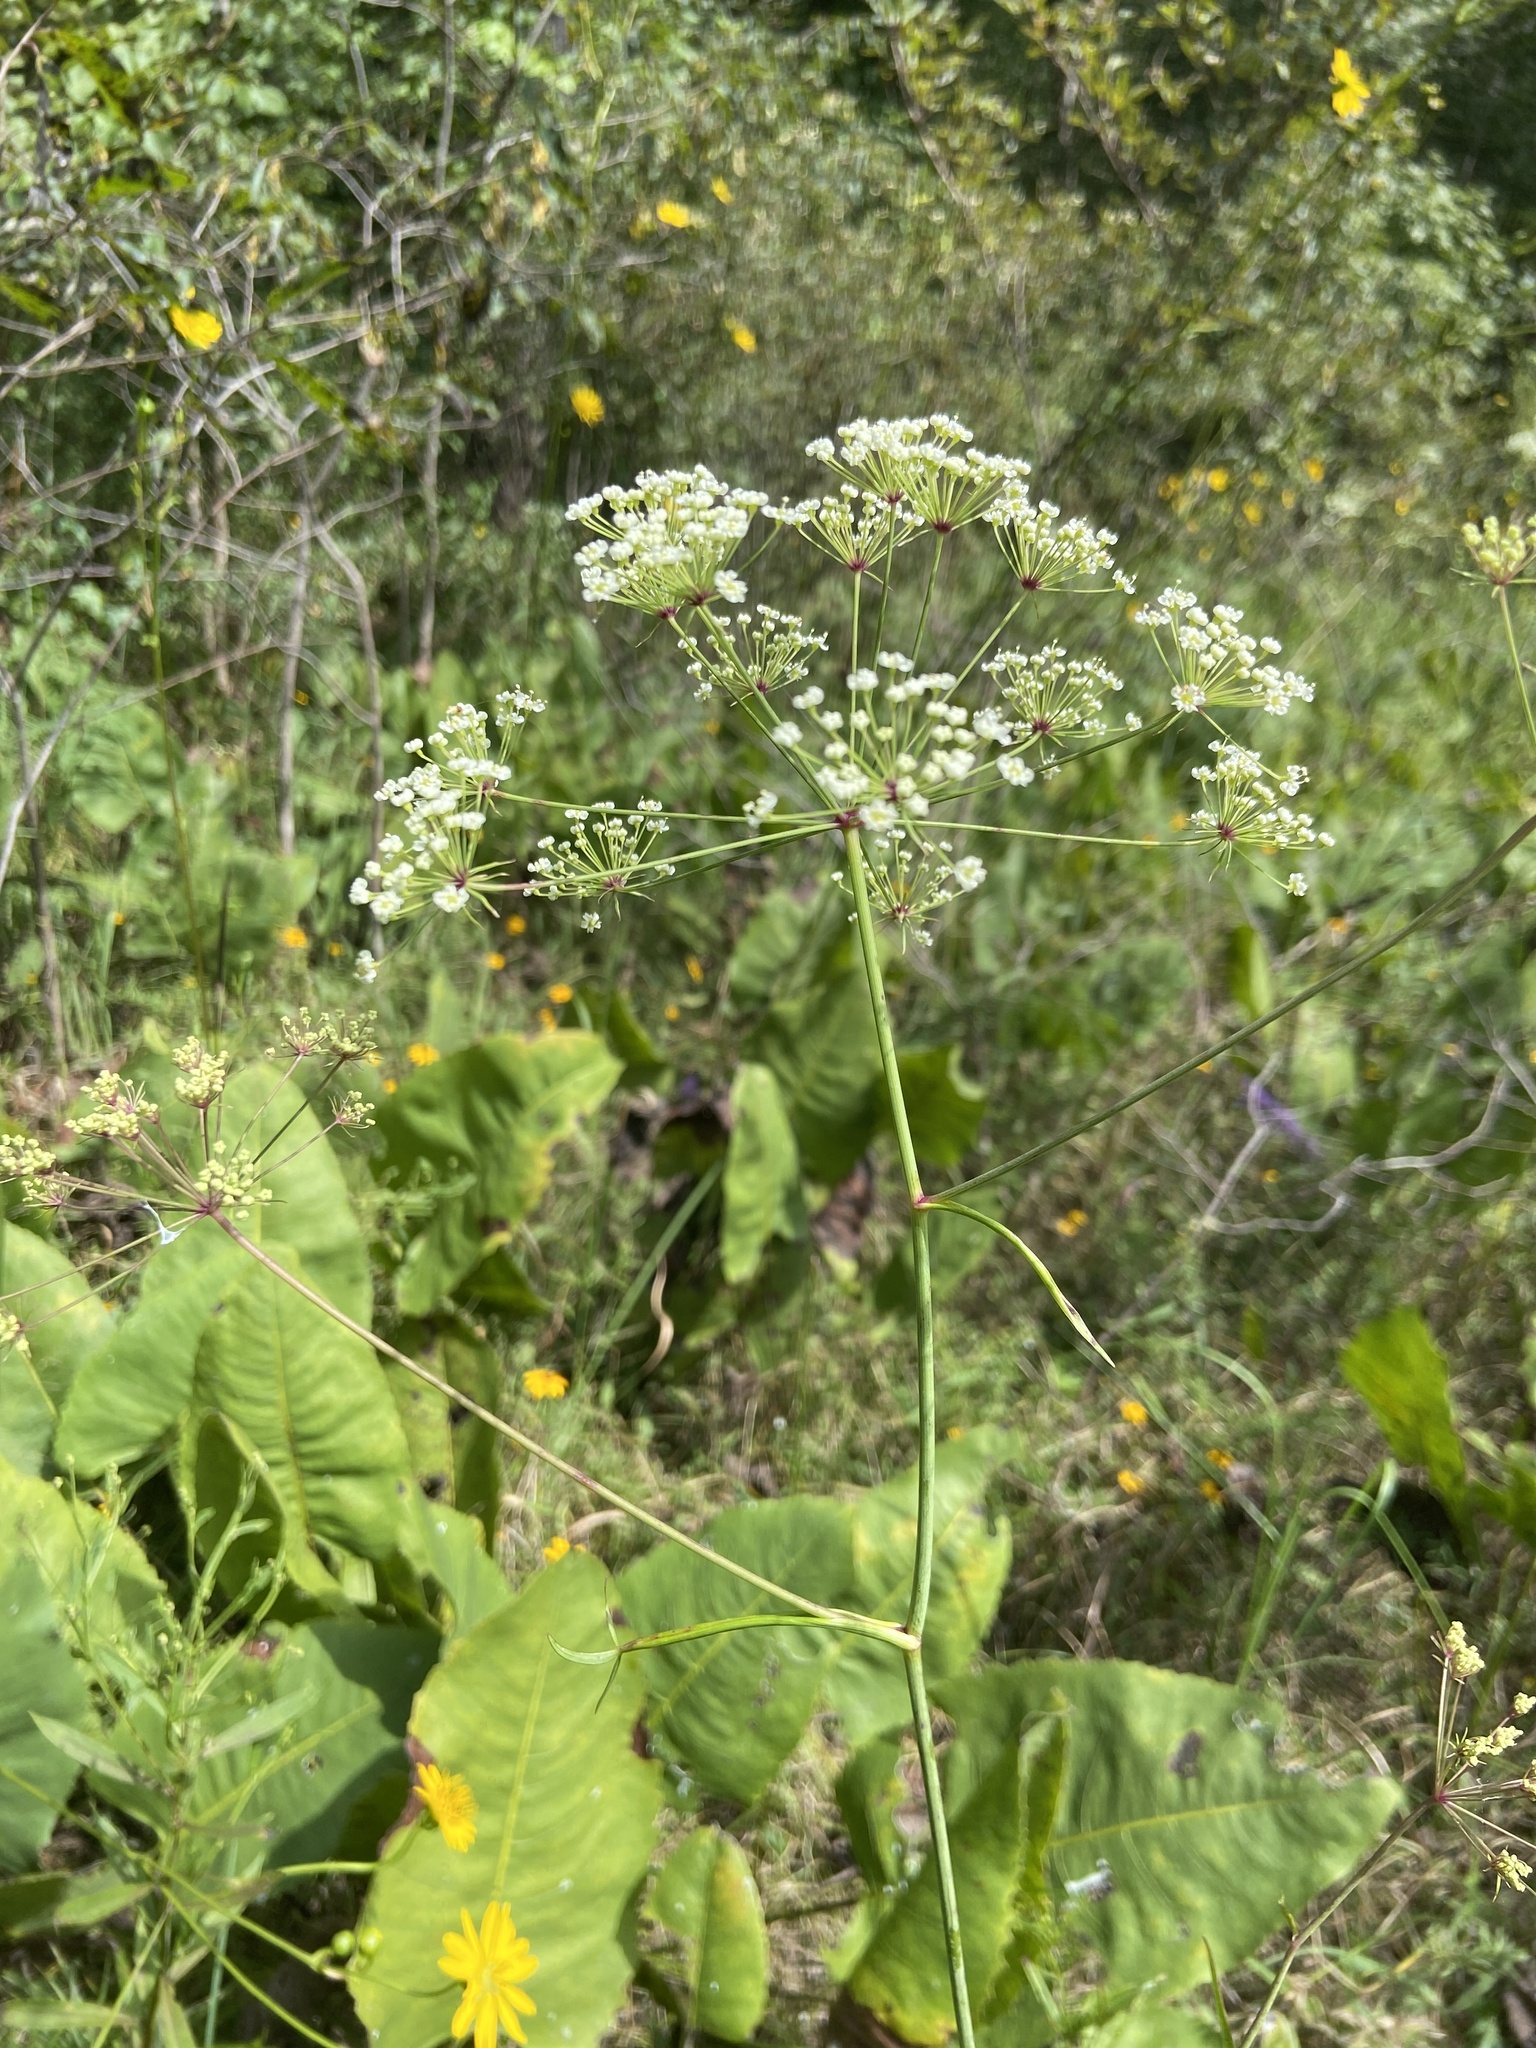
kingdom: Plantae
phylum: Tracheophyta
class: Magnoliopsida
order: Apiales
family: Apiaceae
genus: Oxypolis
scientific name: Oxypolis rigidior
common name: Cowbane
